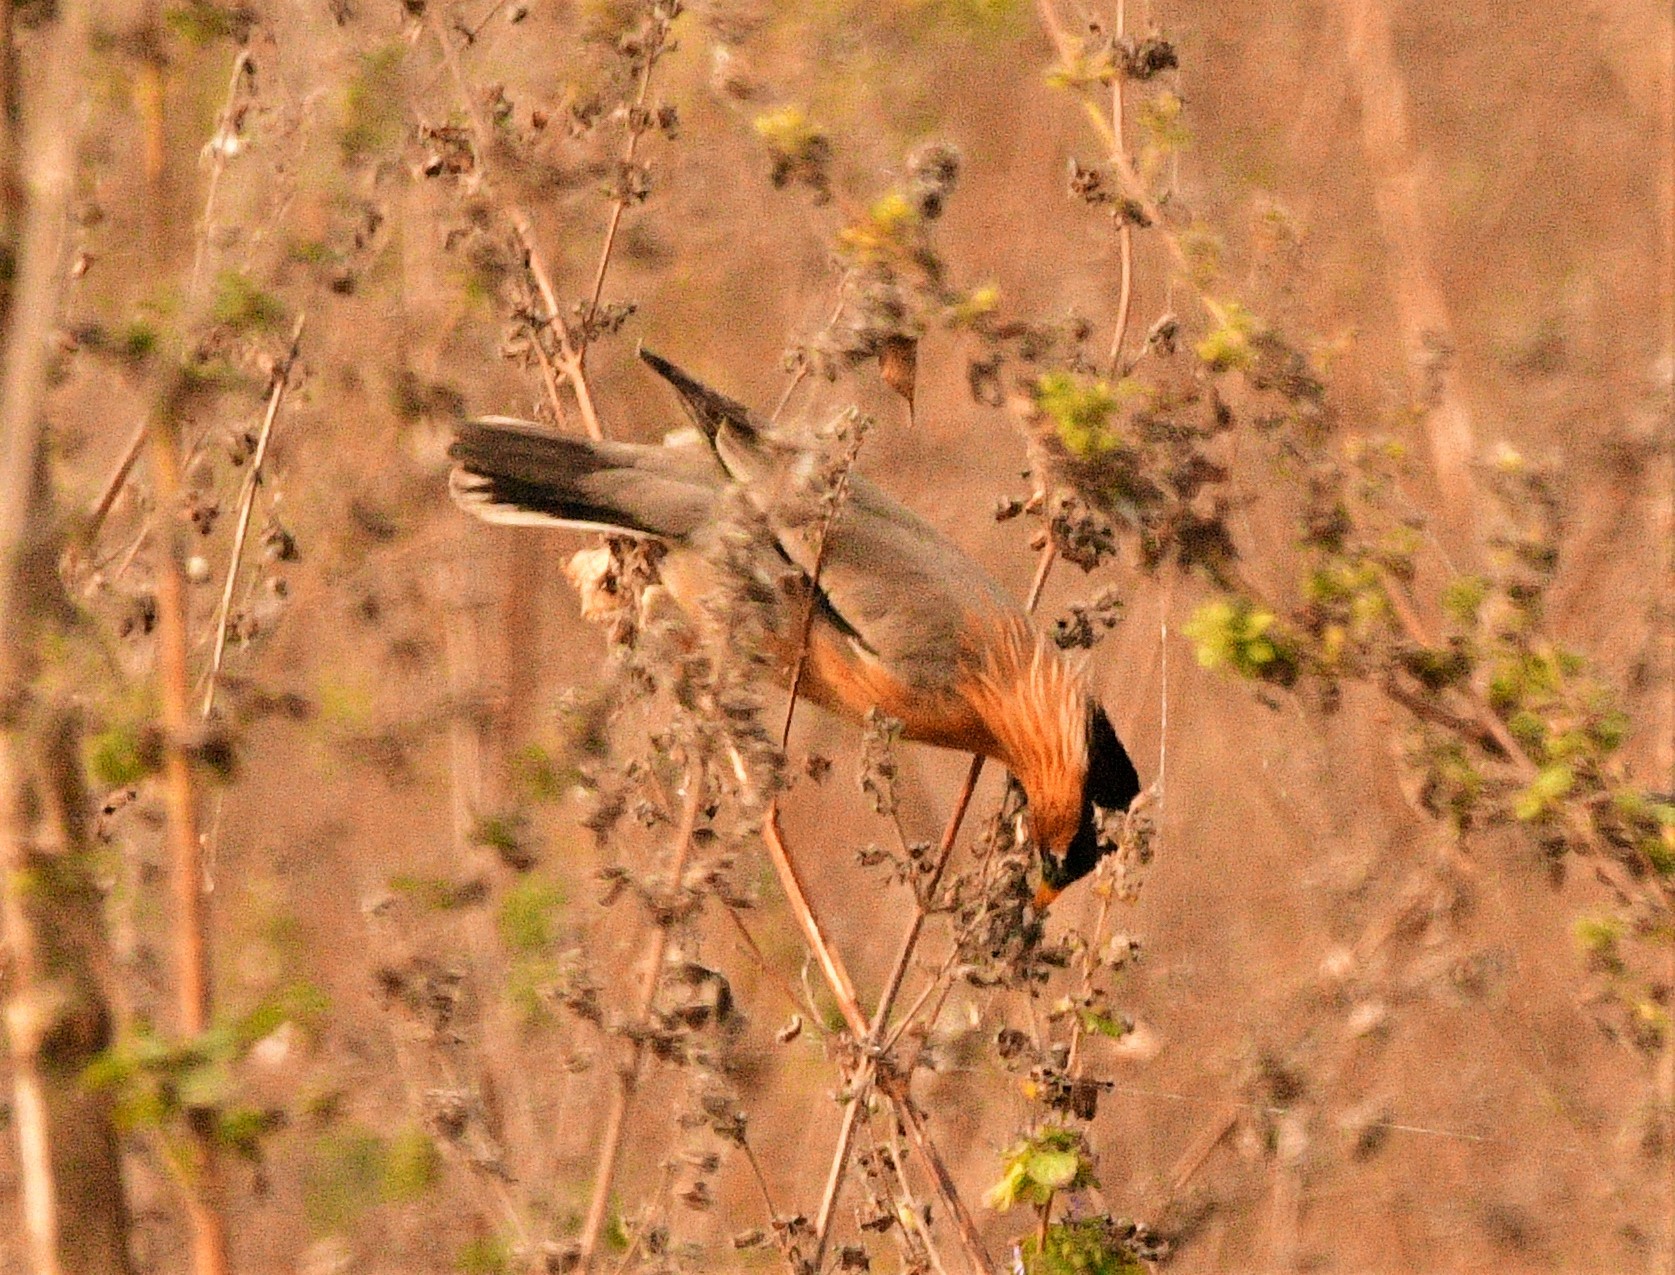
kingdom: Animalia
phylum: Chordata
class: Aves
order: Passeriformes
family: Sturnidae
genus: Sturnia
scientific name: Sturnia pagodarum
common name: Brahminy starling
